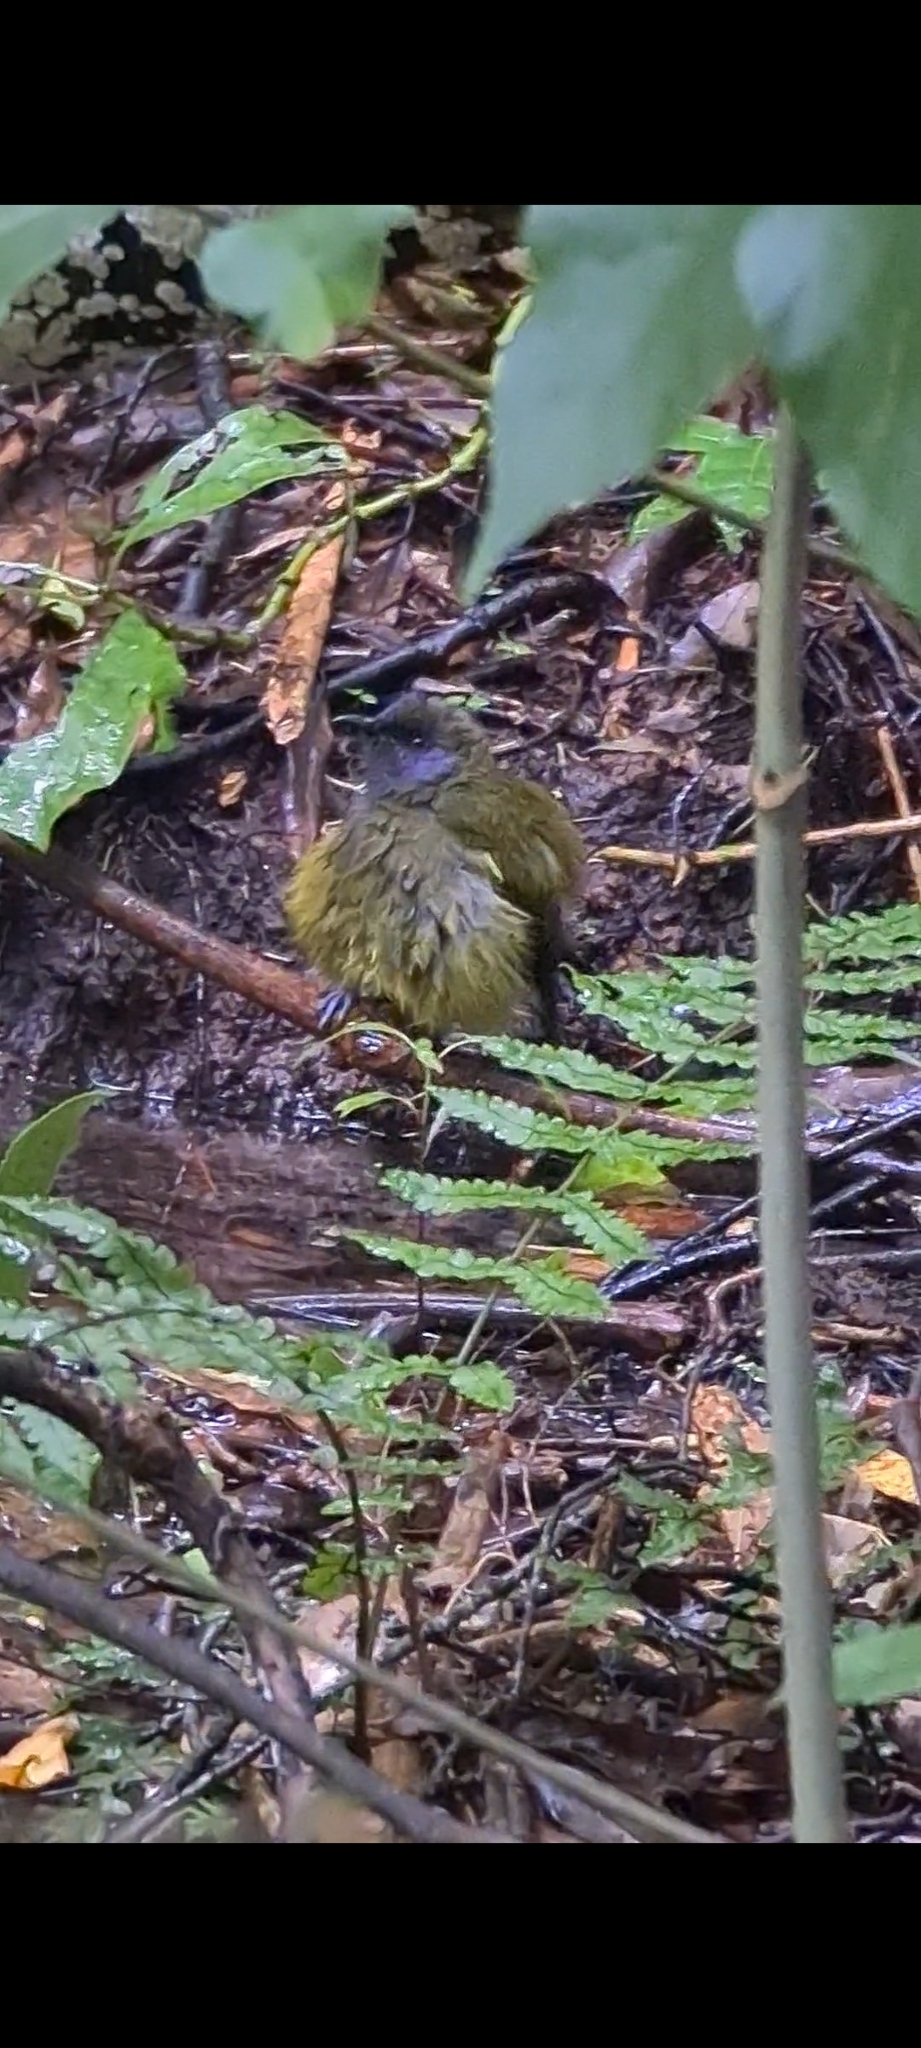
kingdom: Animalia
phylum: Chordata
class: Aves
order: Passeriformes
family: Meliphagidae
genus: Anthornis
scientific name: Anthornis melanura
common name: New zealand bellbird
